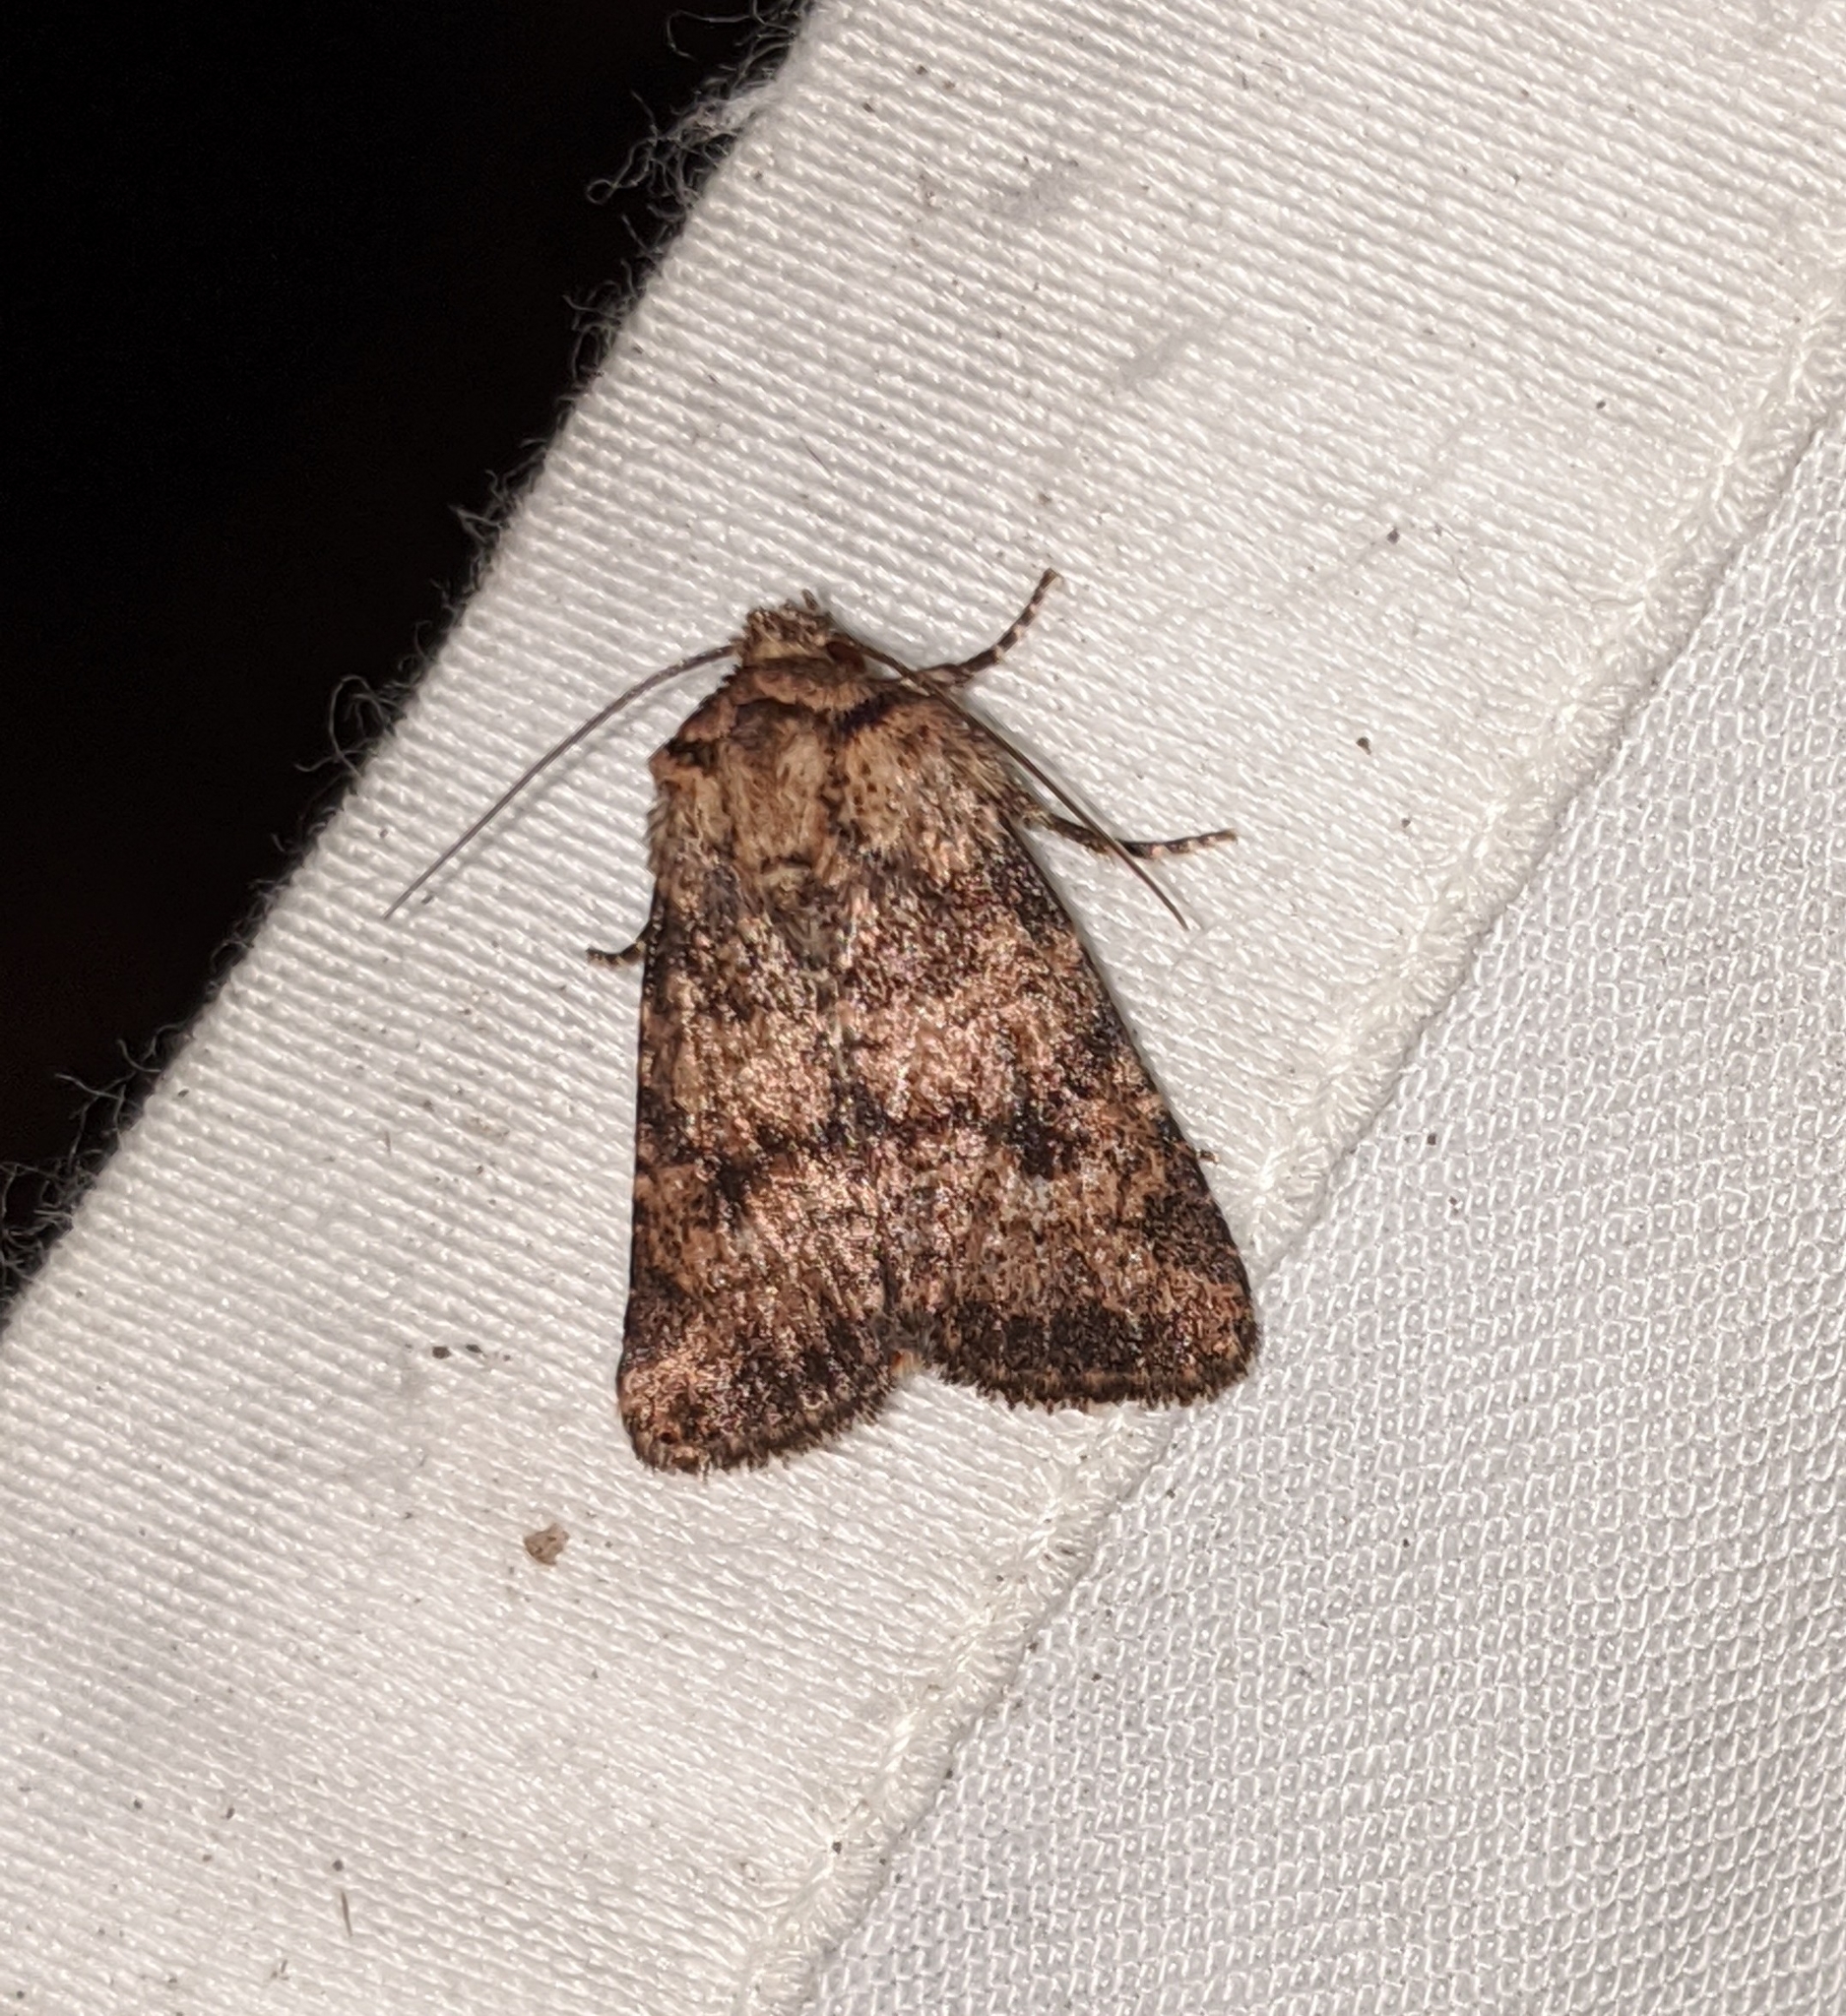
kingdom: Animalia
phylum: Arthropoda
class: Insecta
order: Lepidoptera
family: Noctuidae
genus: Homorthodes
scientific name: Homorthodes hanhami
